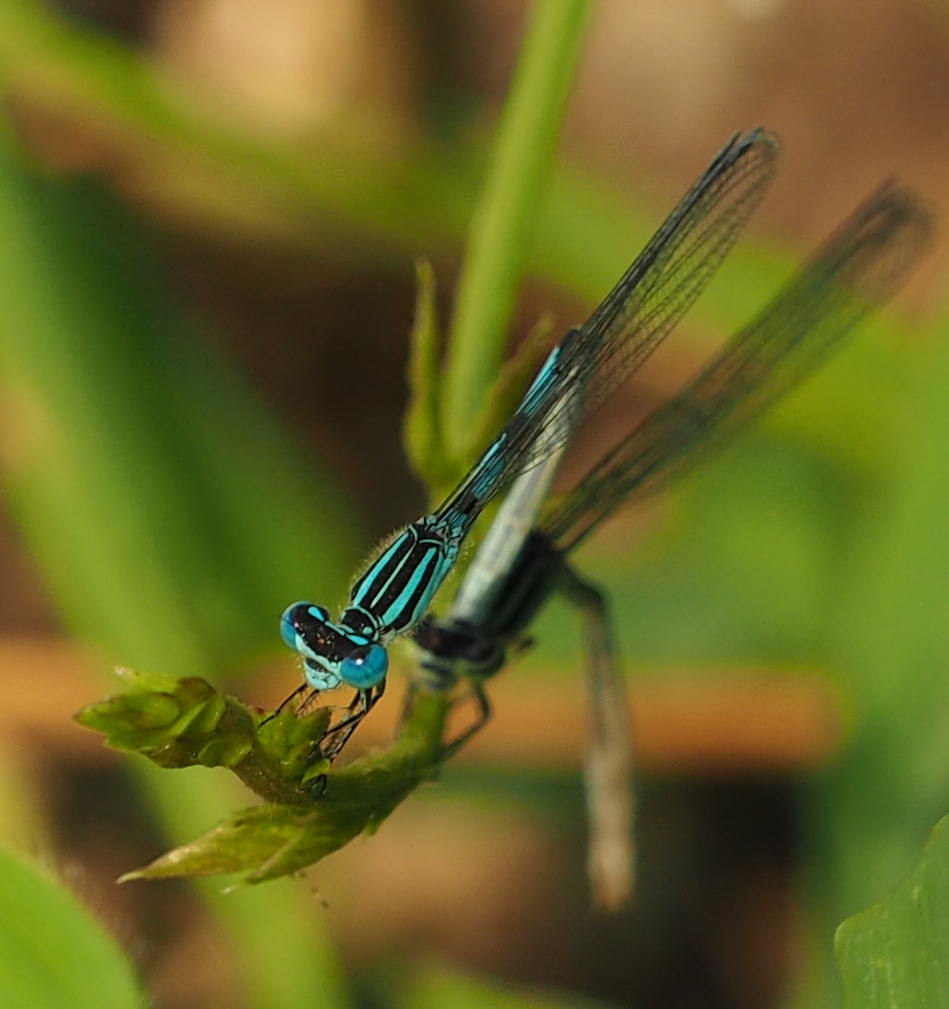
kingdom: Animalia
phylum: Arthropoda
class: Insecta
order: Odonata
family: Coenagrionidae
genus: Enallagma
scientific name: Enallagma durum
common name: Big bluet
